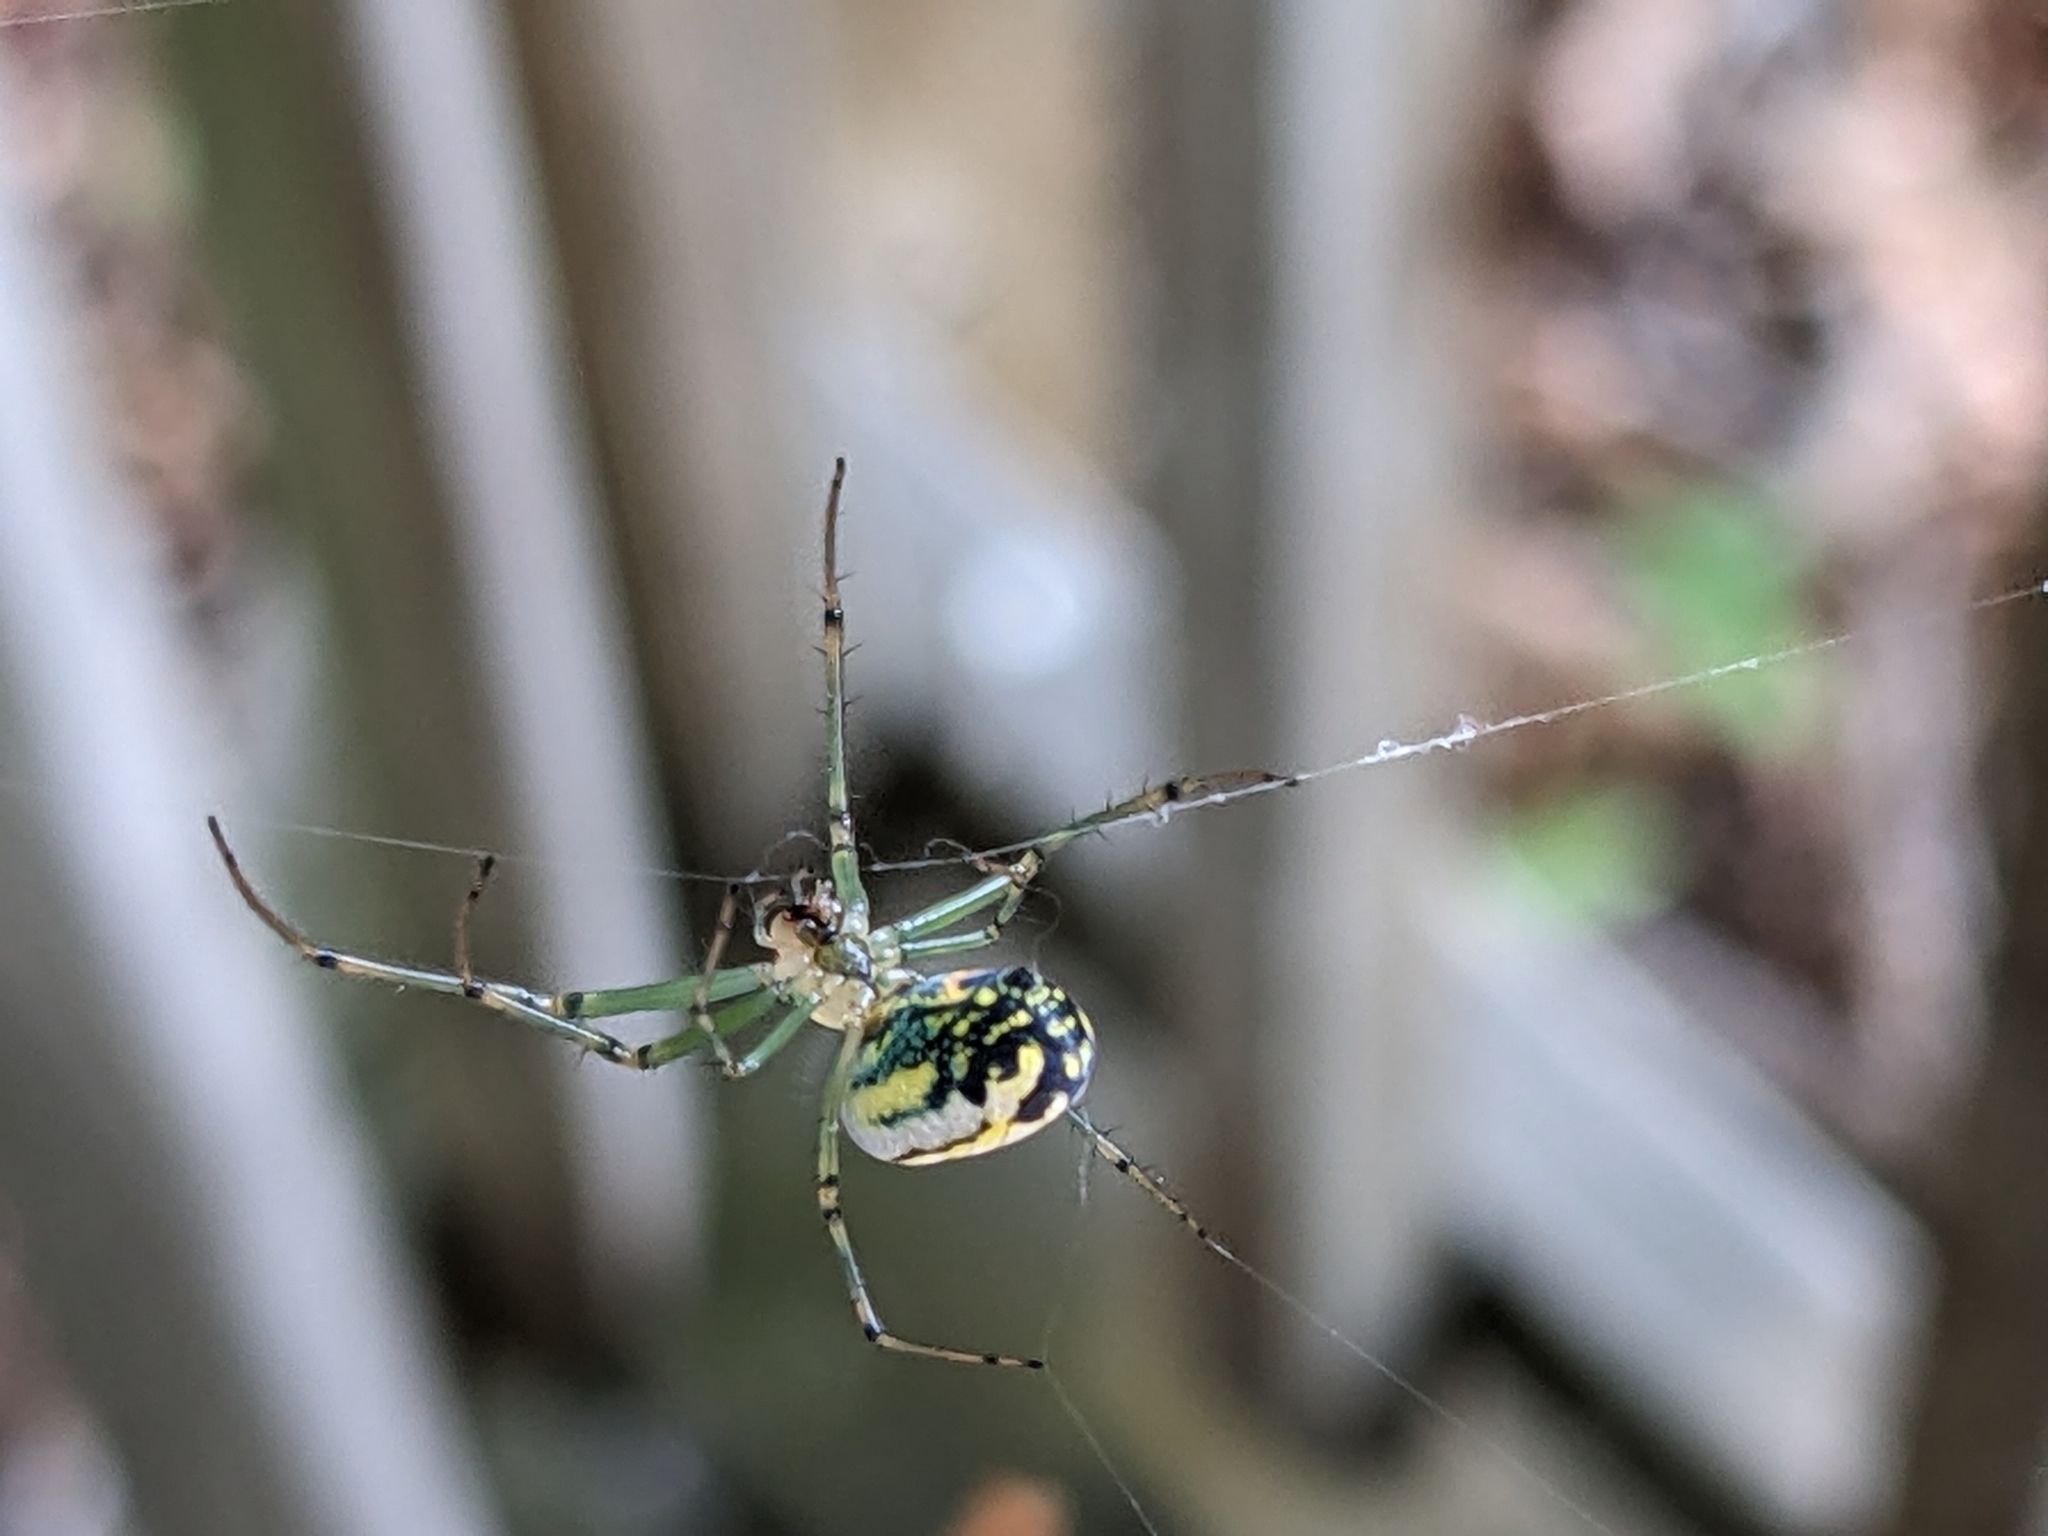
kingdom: Animalia
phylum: Arthropoda
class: Arachnida
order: Araneae
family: Tetragnathidae
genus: Leucauge
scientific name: Leucauge venusta
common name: Longjawed orb weavers
